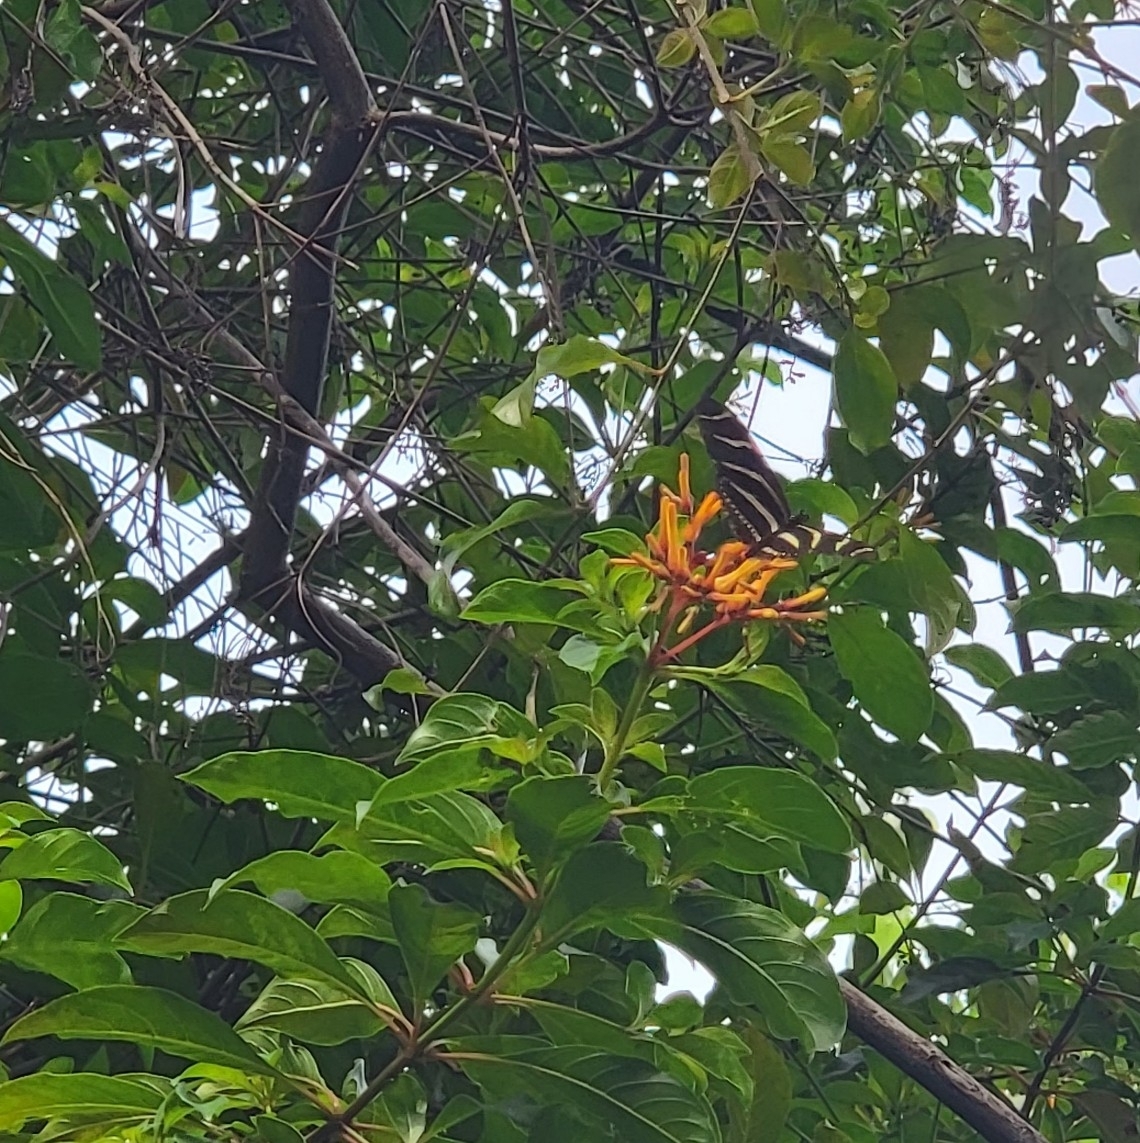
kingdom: Animalia
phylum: Arthropoda
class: Insecta
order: Lepidoptera
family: Nymphalidae
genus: Heliconius
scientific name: Heliconius charithonia
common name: Zebra long wing
